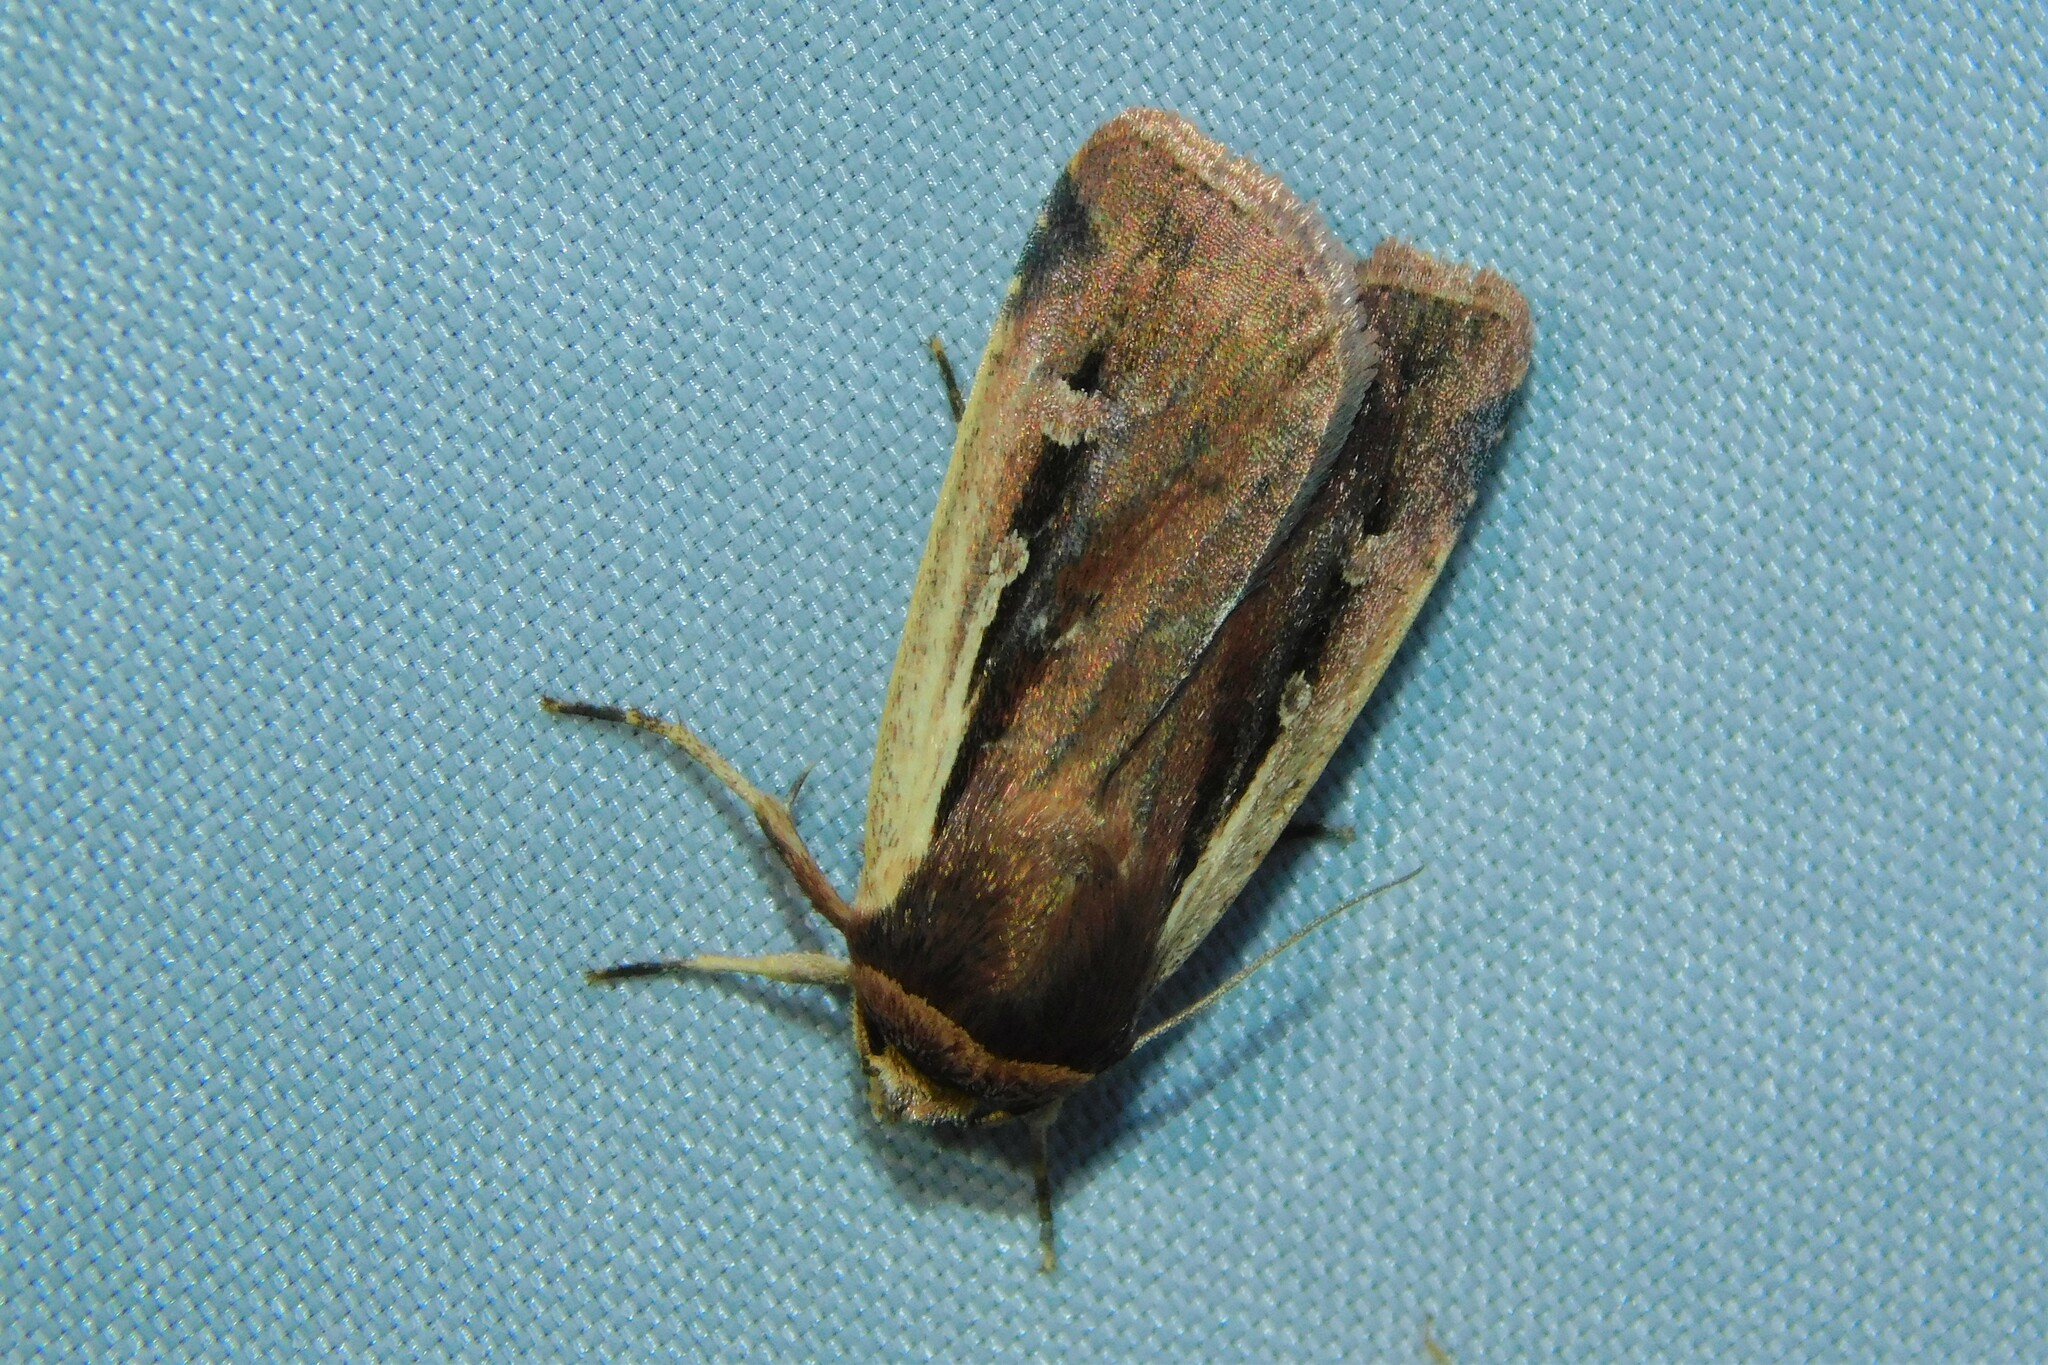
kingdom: Animalia
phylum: Arthropoda
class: Insecta
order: Lepidoptera
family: Noctuidae
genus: Ochropleura
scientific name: Ochropleura plecta
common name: Flame shoulder
